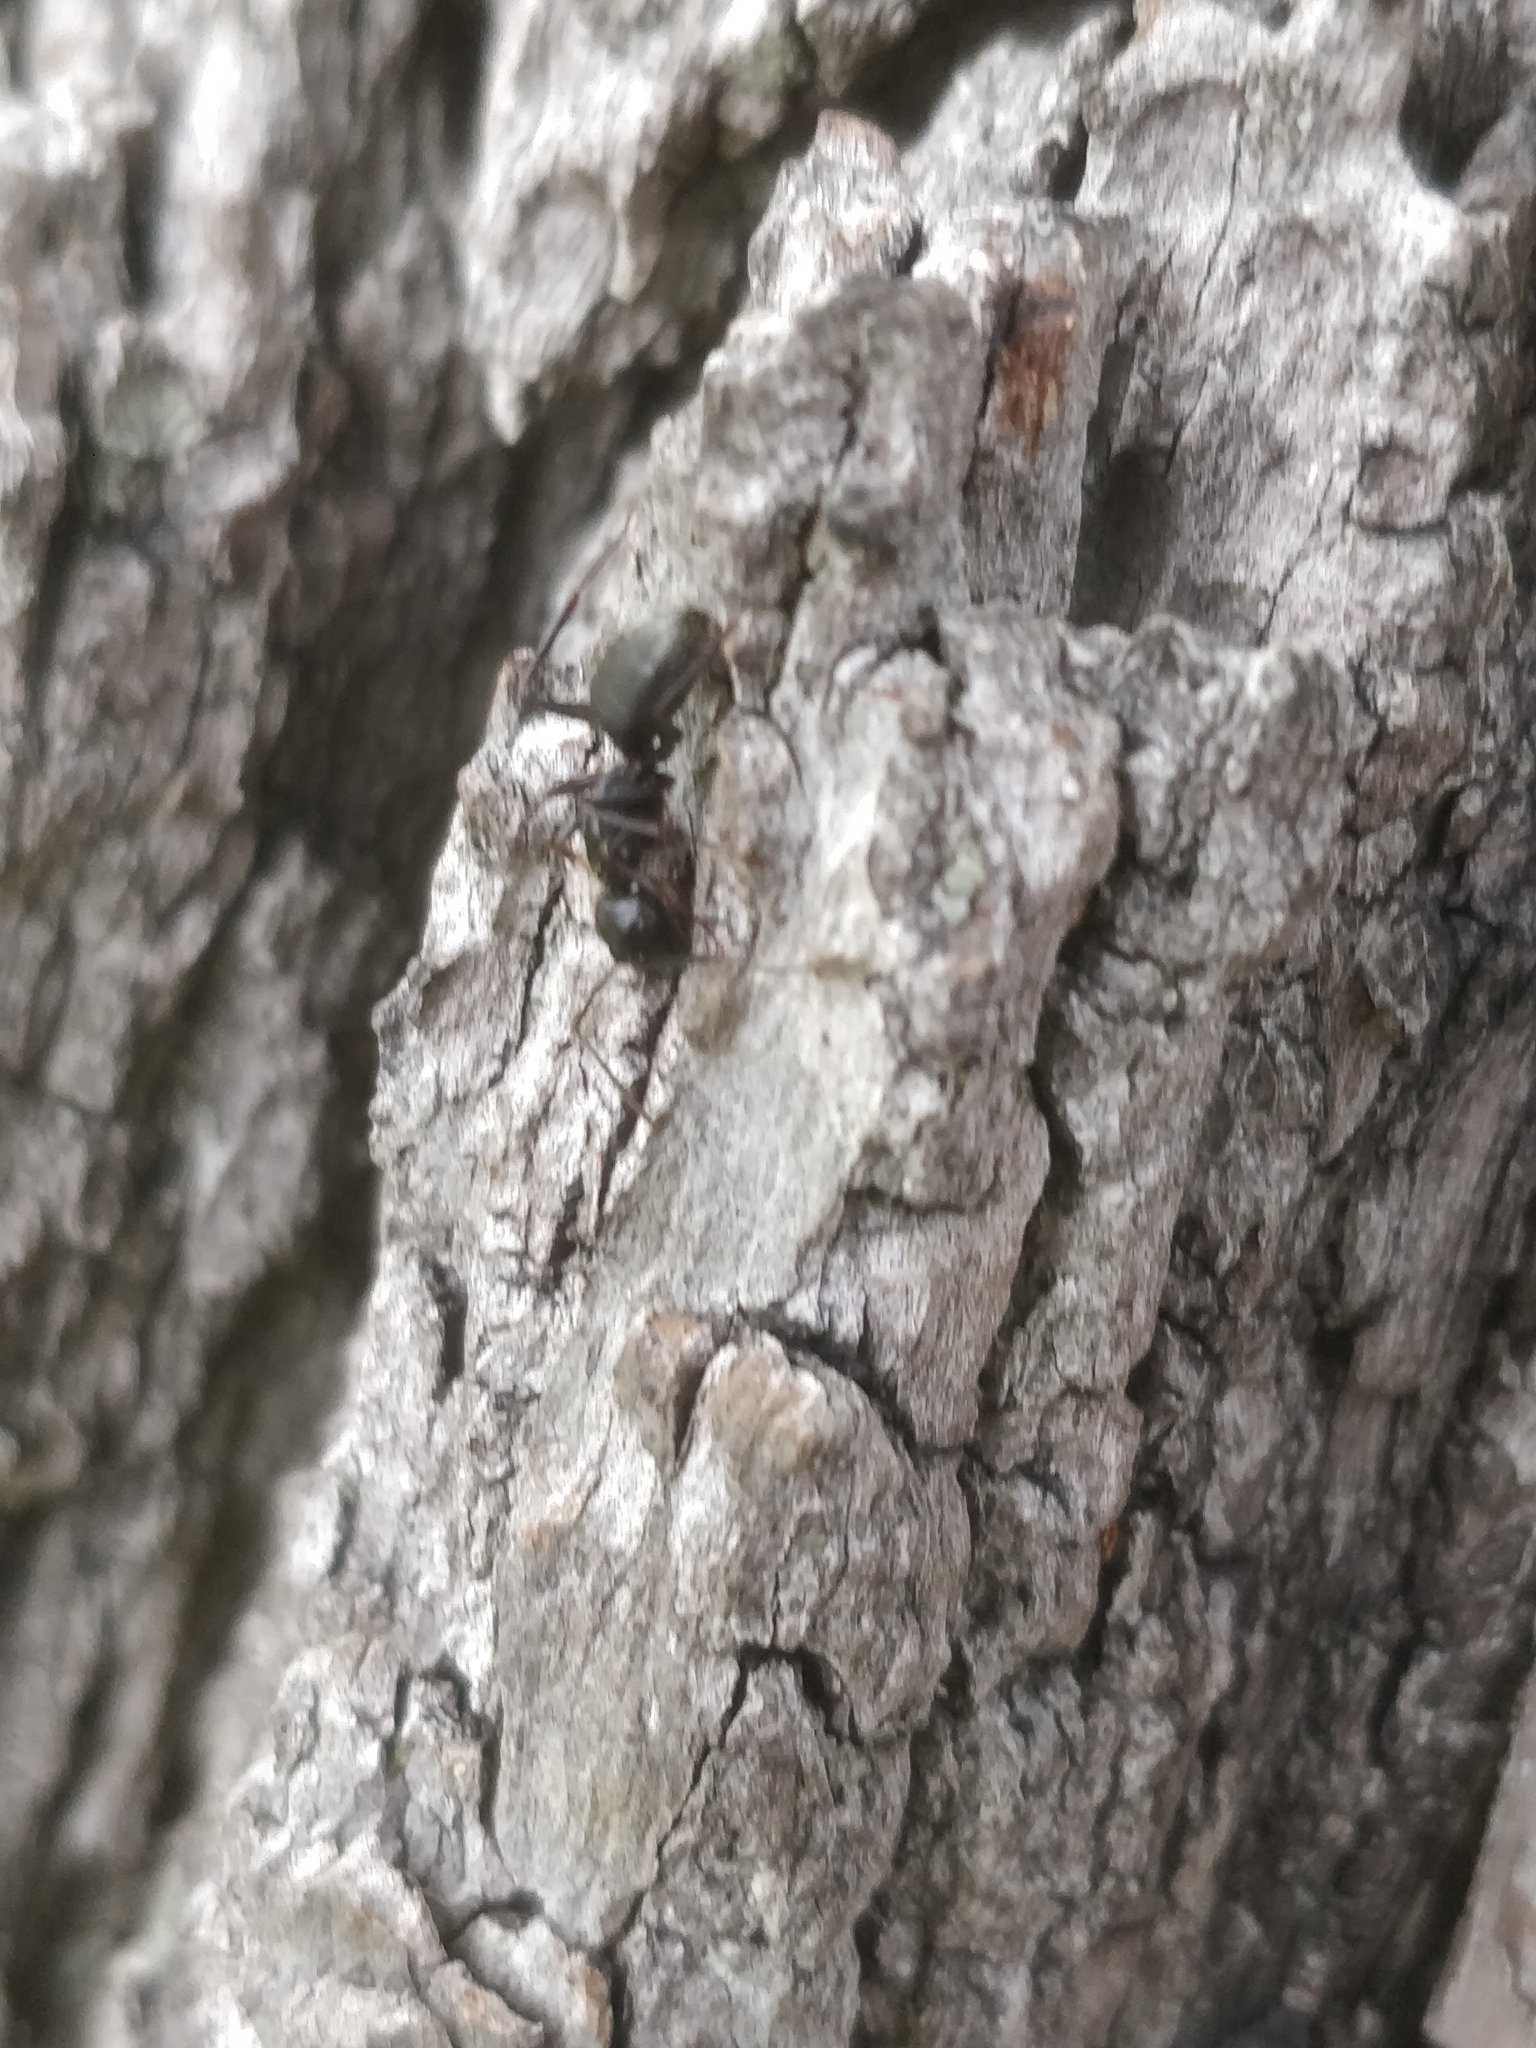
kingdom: Animalia
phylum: Arthropoda
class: Insecta
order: Hymenoptera
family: Formicidae
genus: Camponotus
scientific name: Camponotus pennsylvanicus
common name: Black carpenter ant
